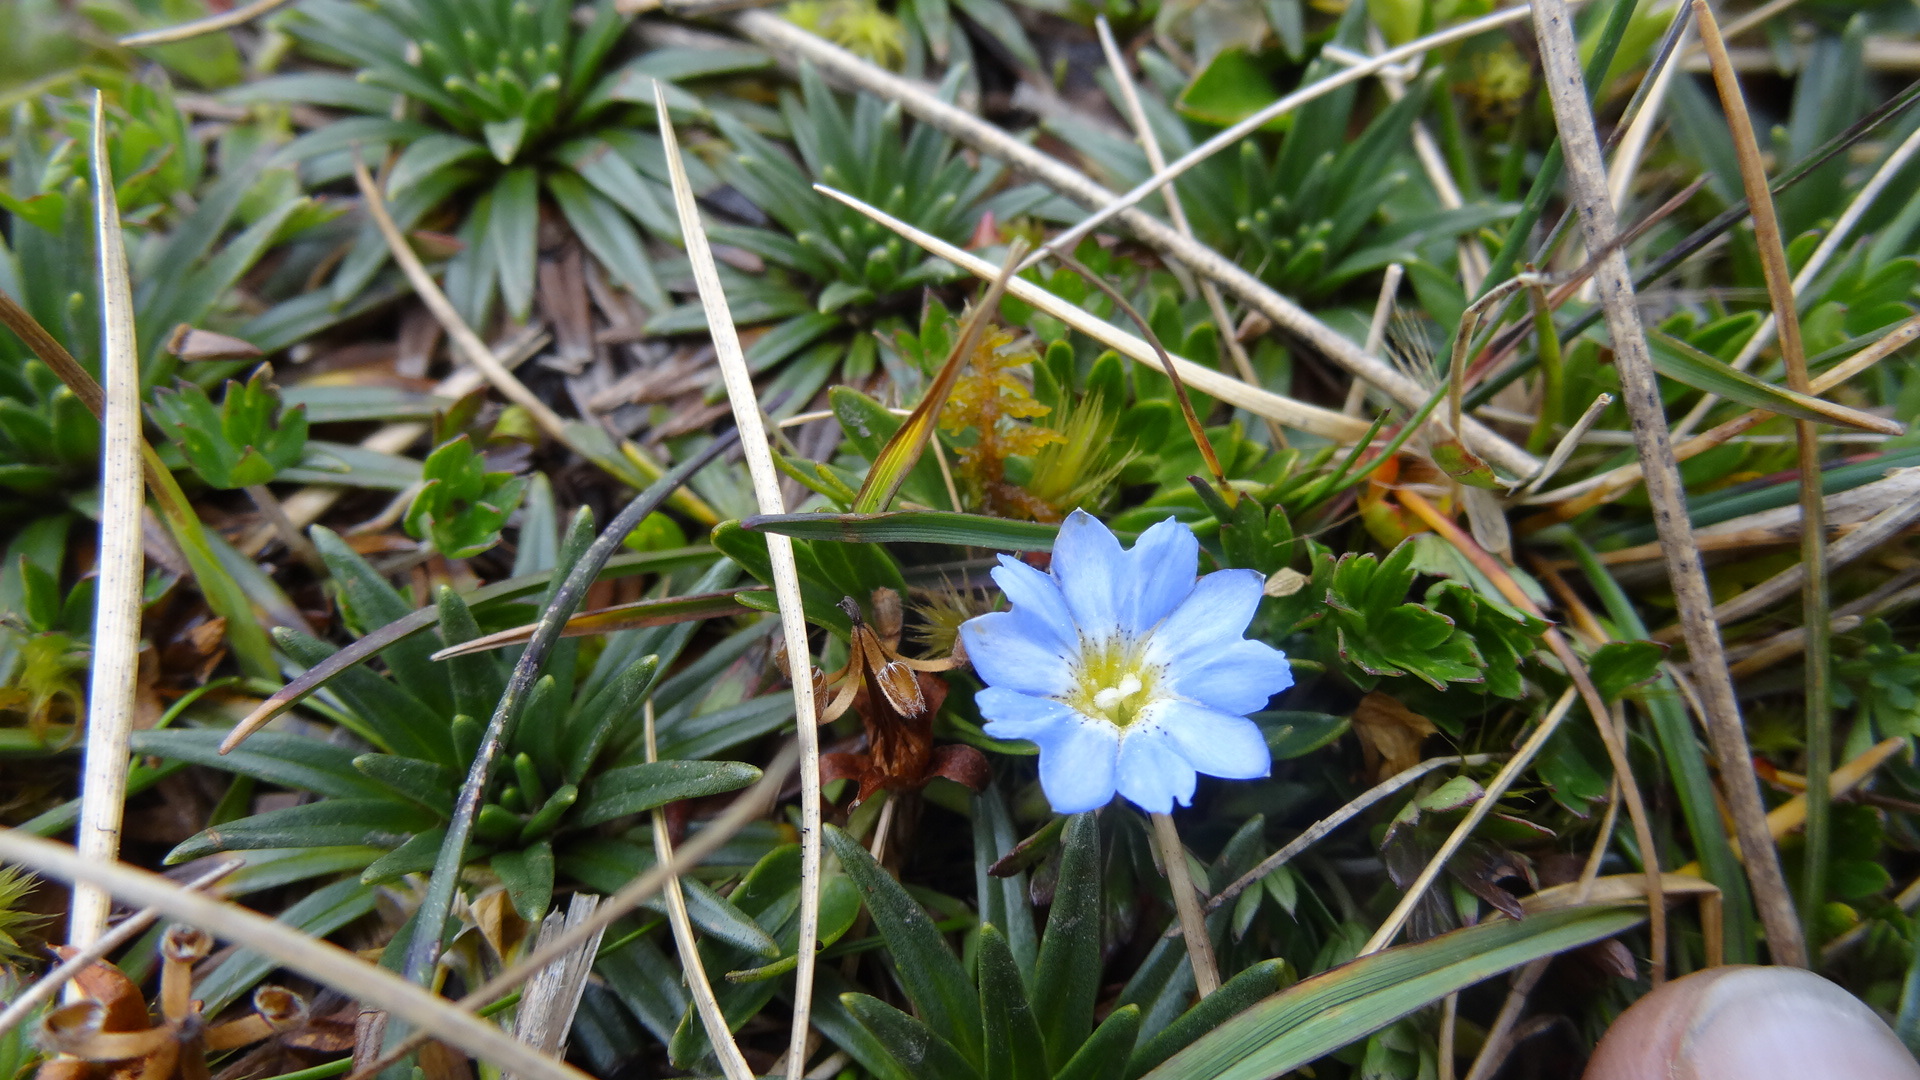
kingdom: Plantae
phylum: Tracheophyta
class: Magnoliopsida
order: Gentianales
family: Gentianaceae
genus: Gentiana
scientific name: Gentiana sedifolia
